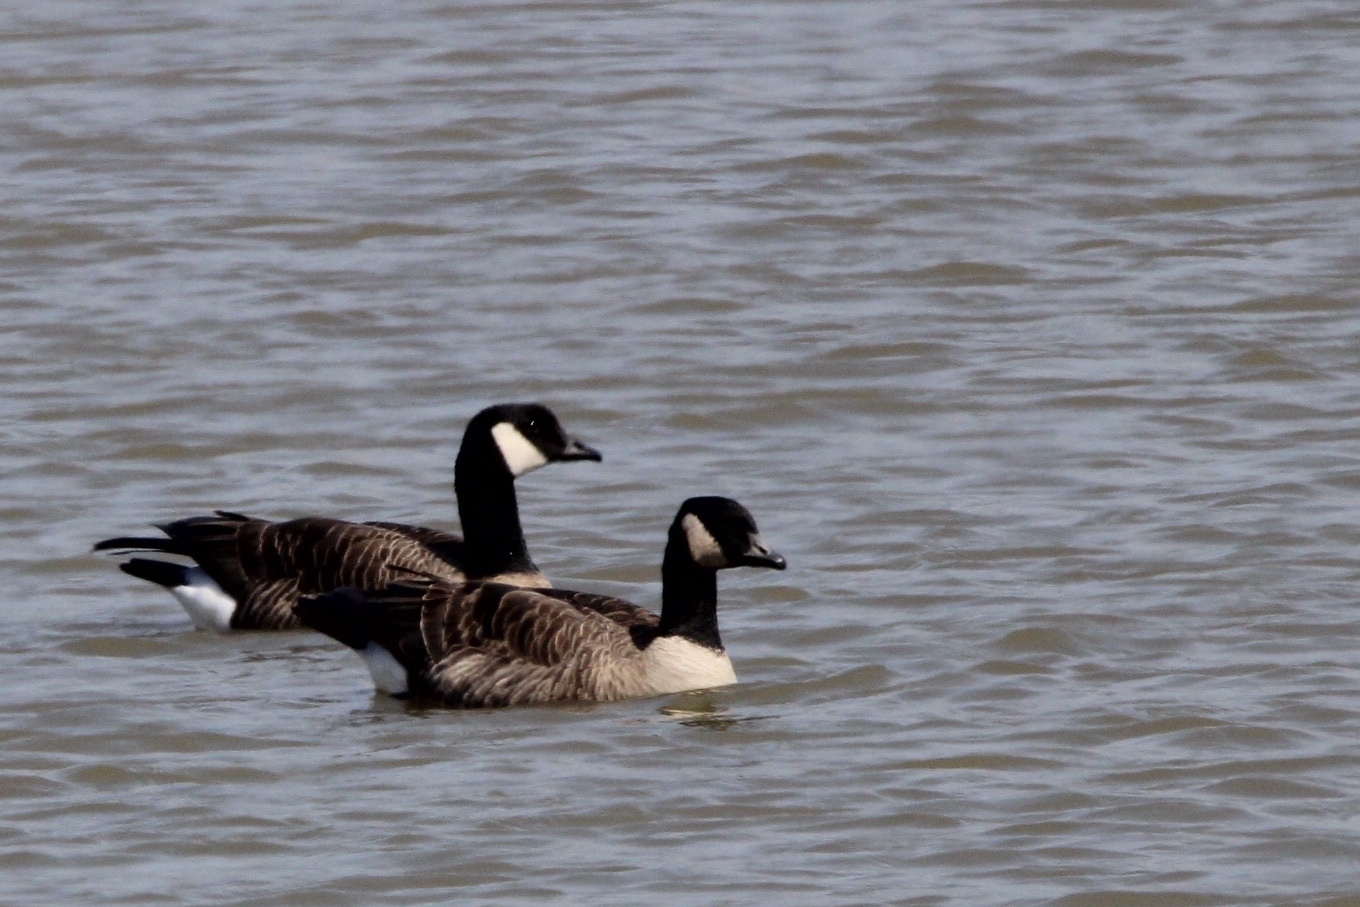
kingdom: Animalia
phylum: Chordata
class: Aves
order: Anseriformes
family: Anatidae
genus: Branta
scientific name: Branta hutchinsii
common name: Cackling goose
